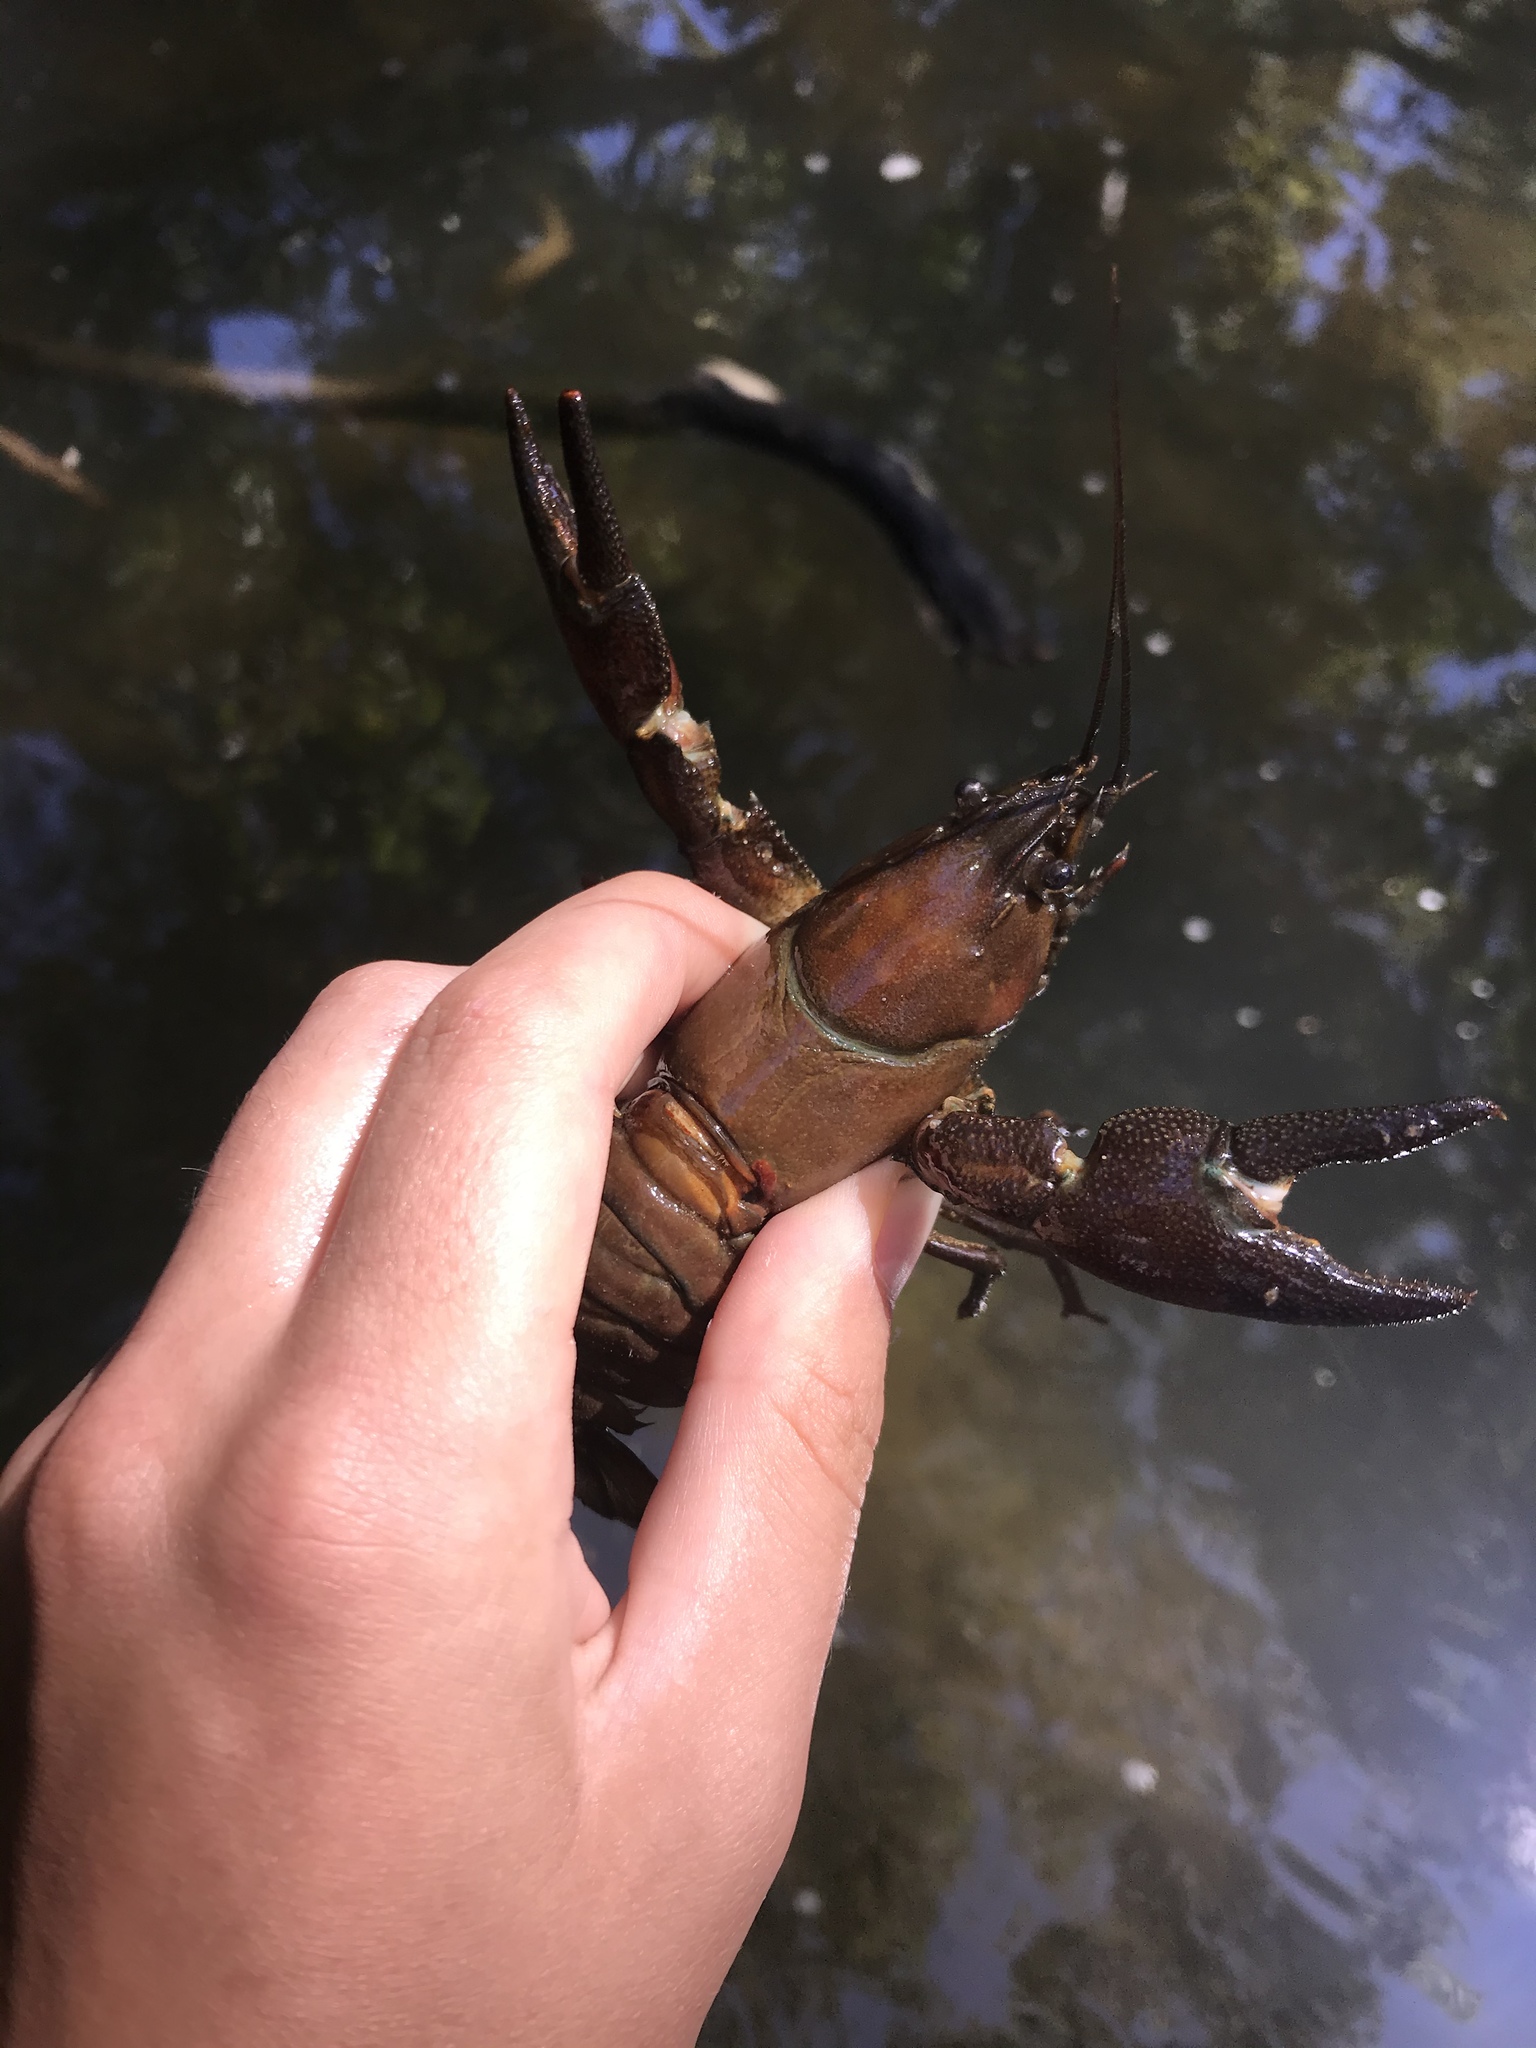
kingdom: Animalia
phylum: Arthropoda
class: Malacostraca
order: Decapoda
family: Astacidae
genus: Pacifastacus
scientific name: Pacifastacus leniusculus
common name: Signal crayfish
